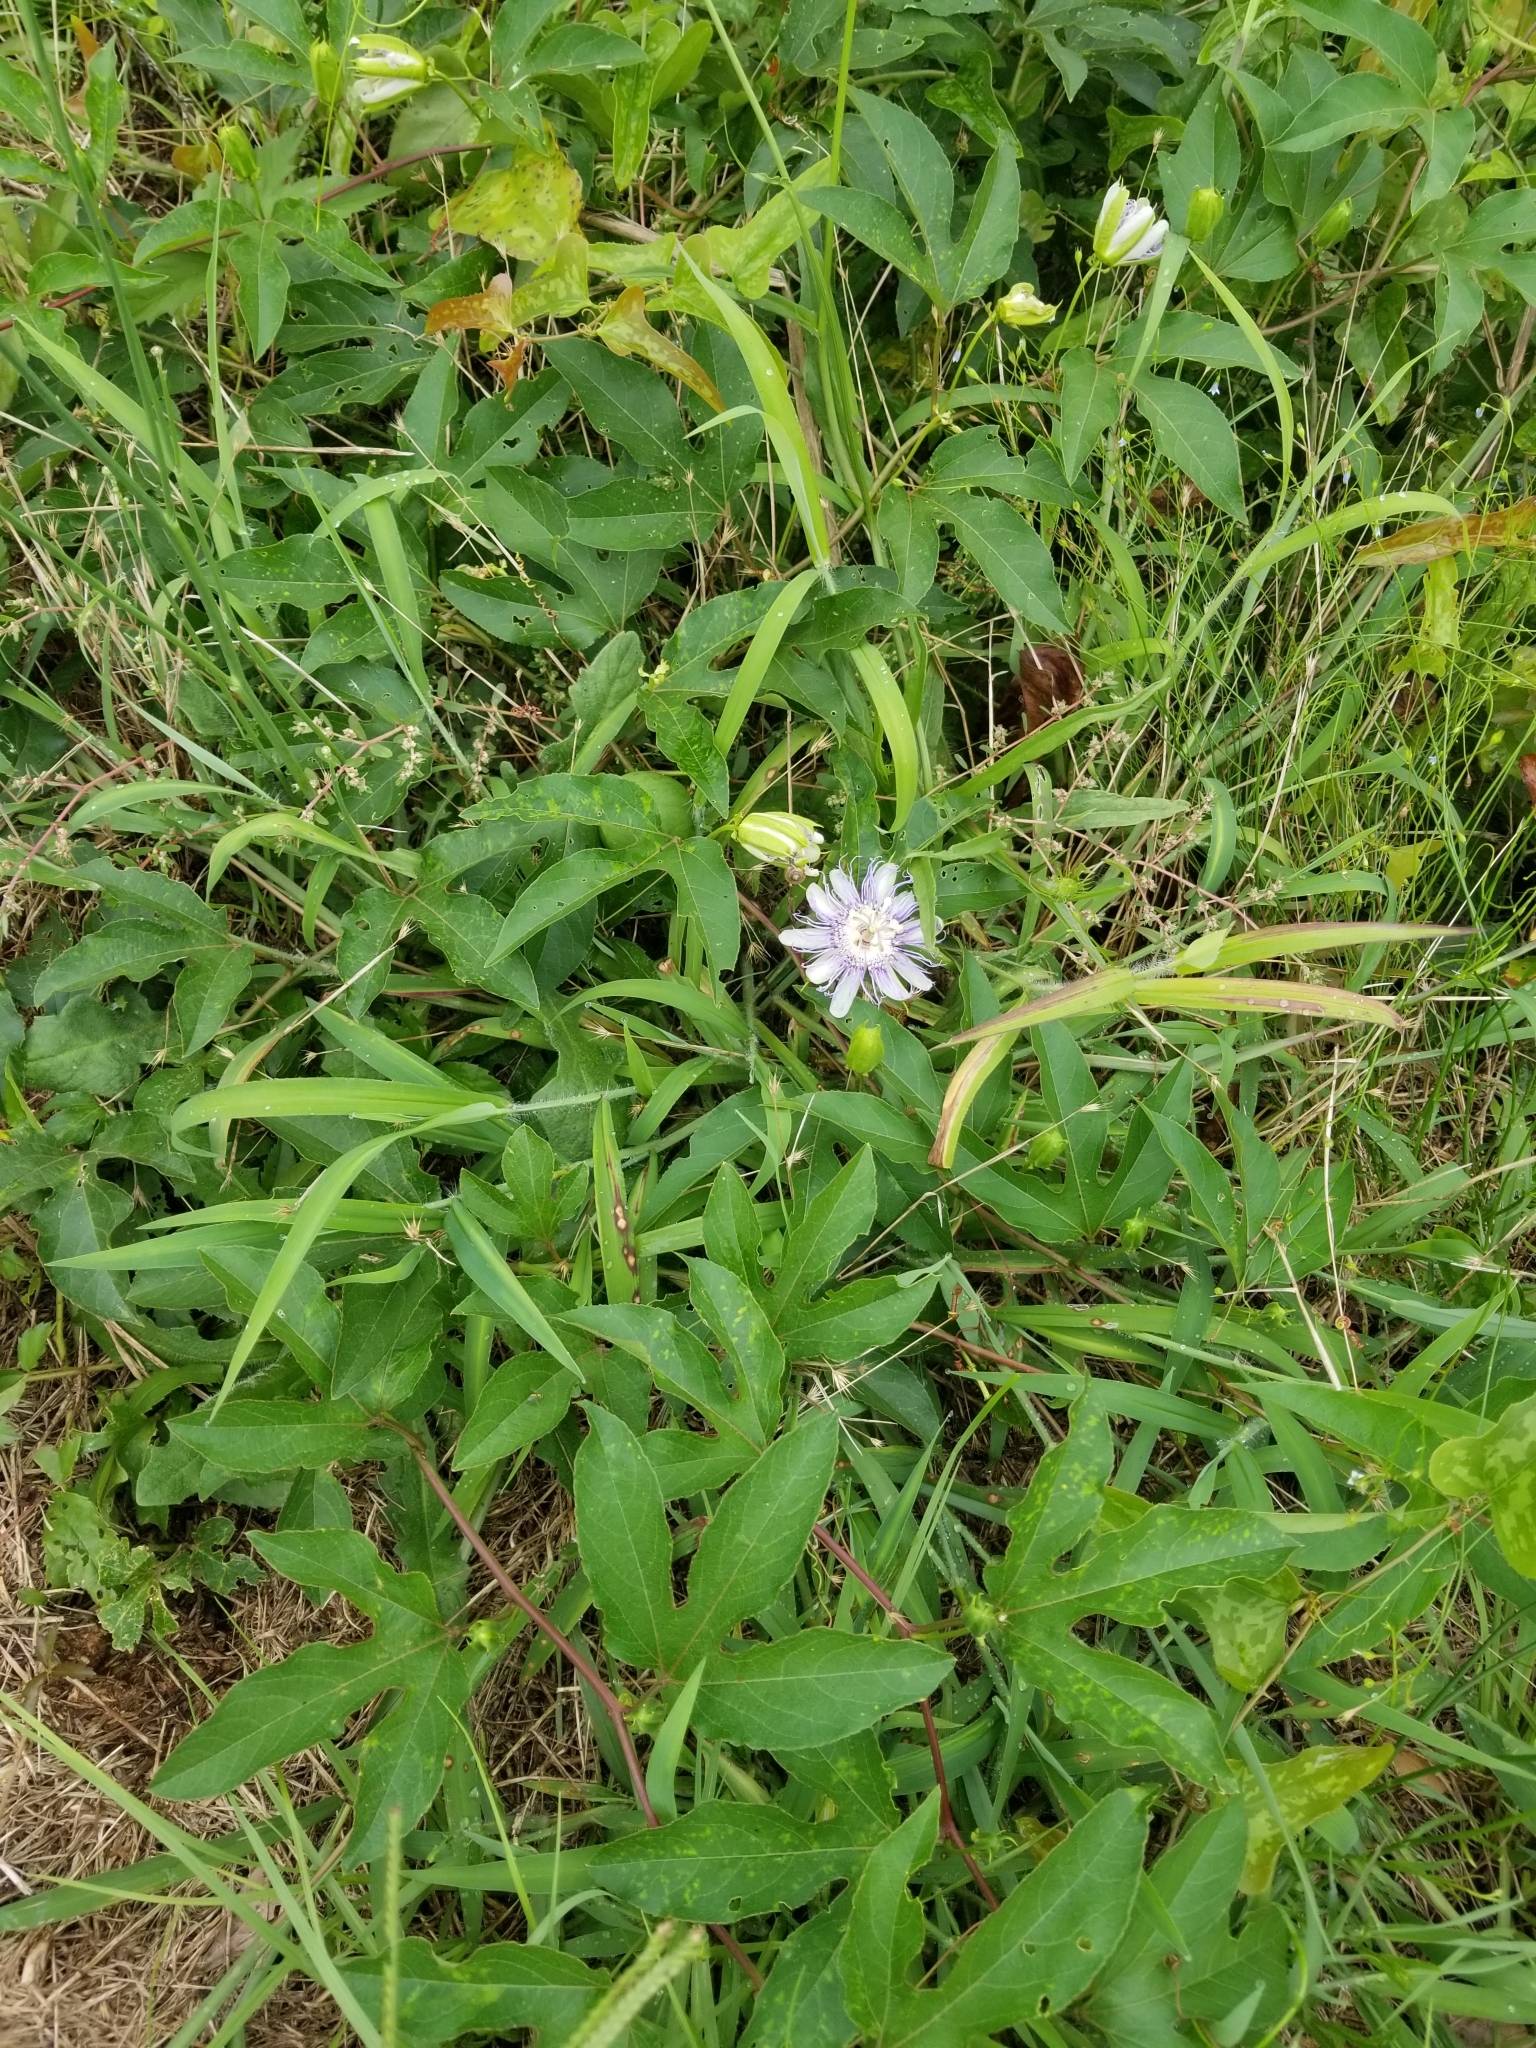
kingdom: Plantae
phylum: Tracheophyta
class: Magnoliopsida
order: Malpighiales
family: Passifloraceae
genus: Passiflora
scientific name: Passiflora incarnata
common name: Apricot-vine
